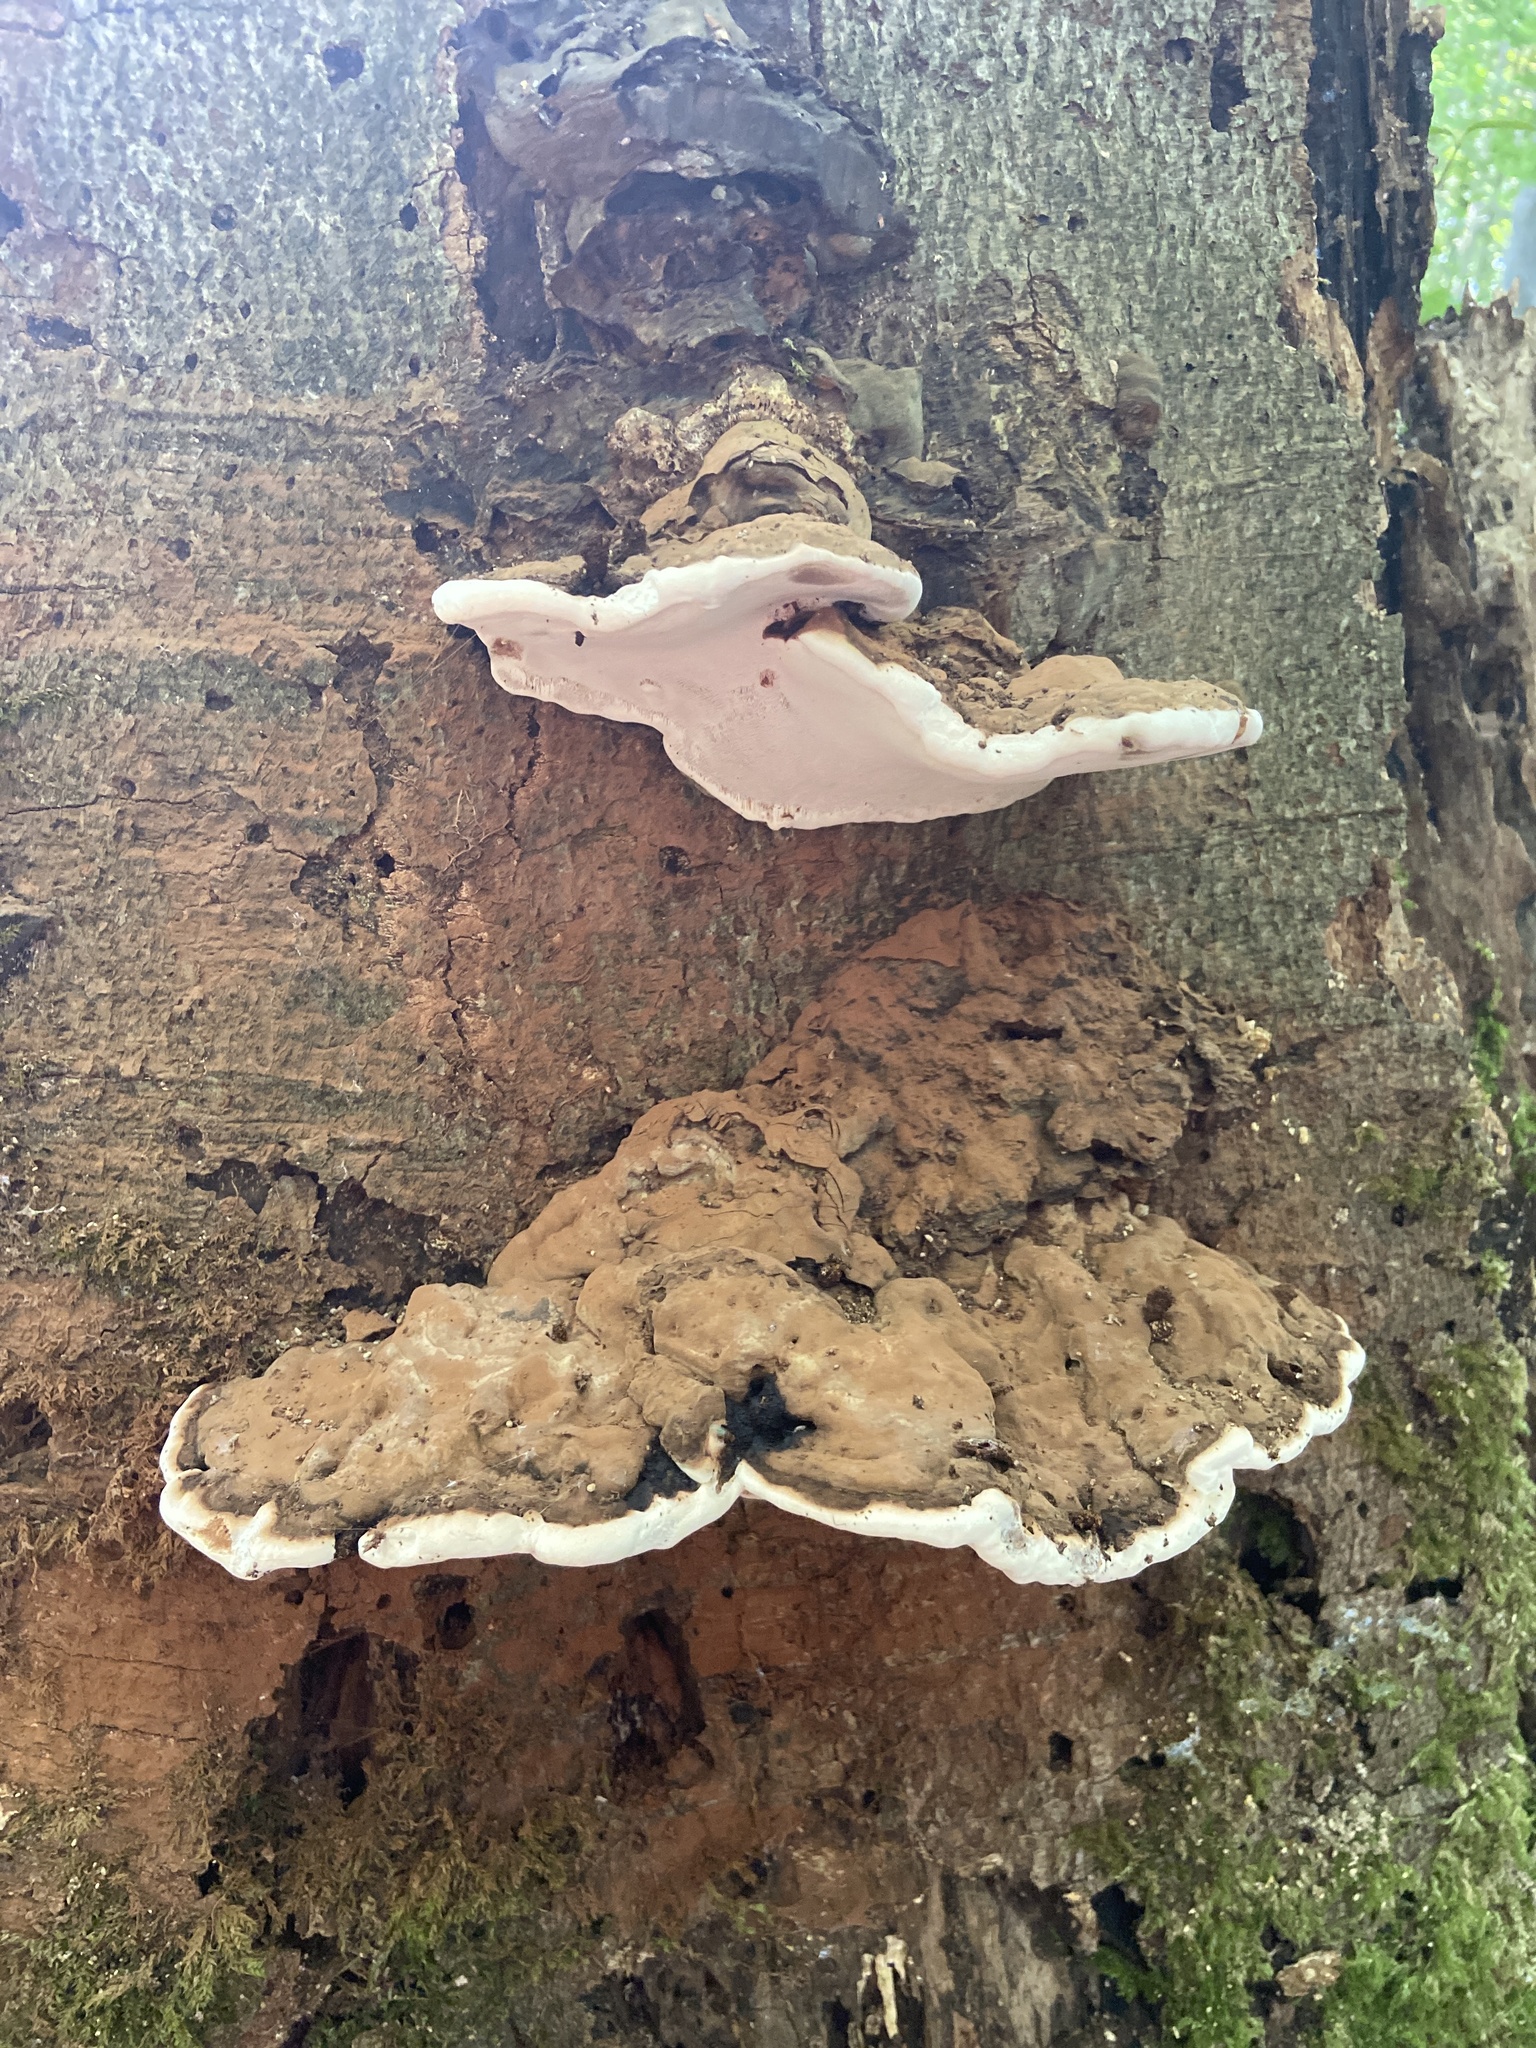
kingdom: Fungi
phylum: Basidiomycota
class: Agaricomycetes
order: Polyporales
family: Polyporaceae
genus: Ganoderma
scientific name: Ganoderma applanatum
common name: Artist's bracket
